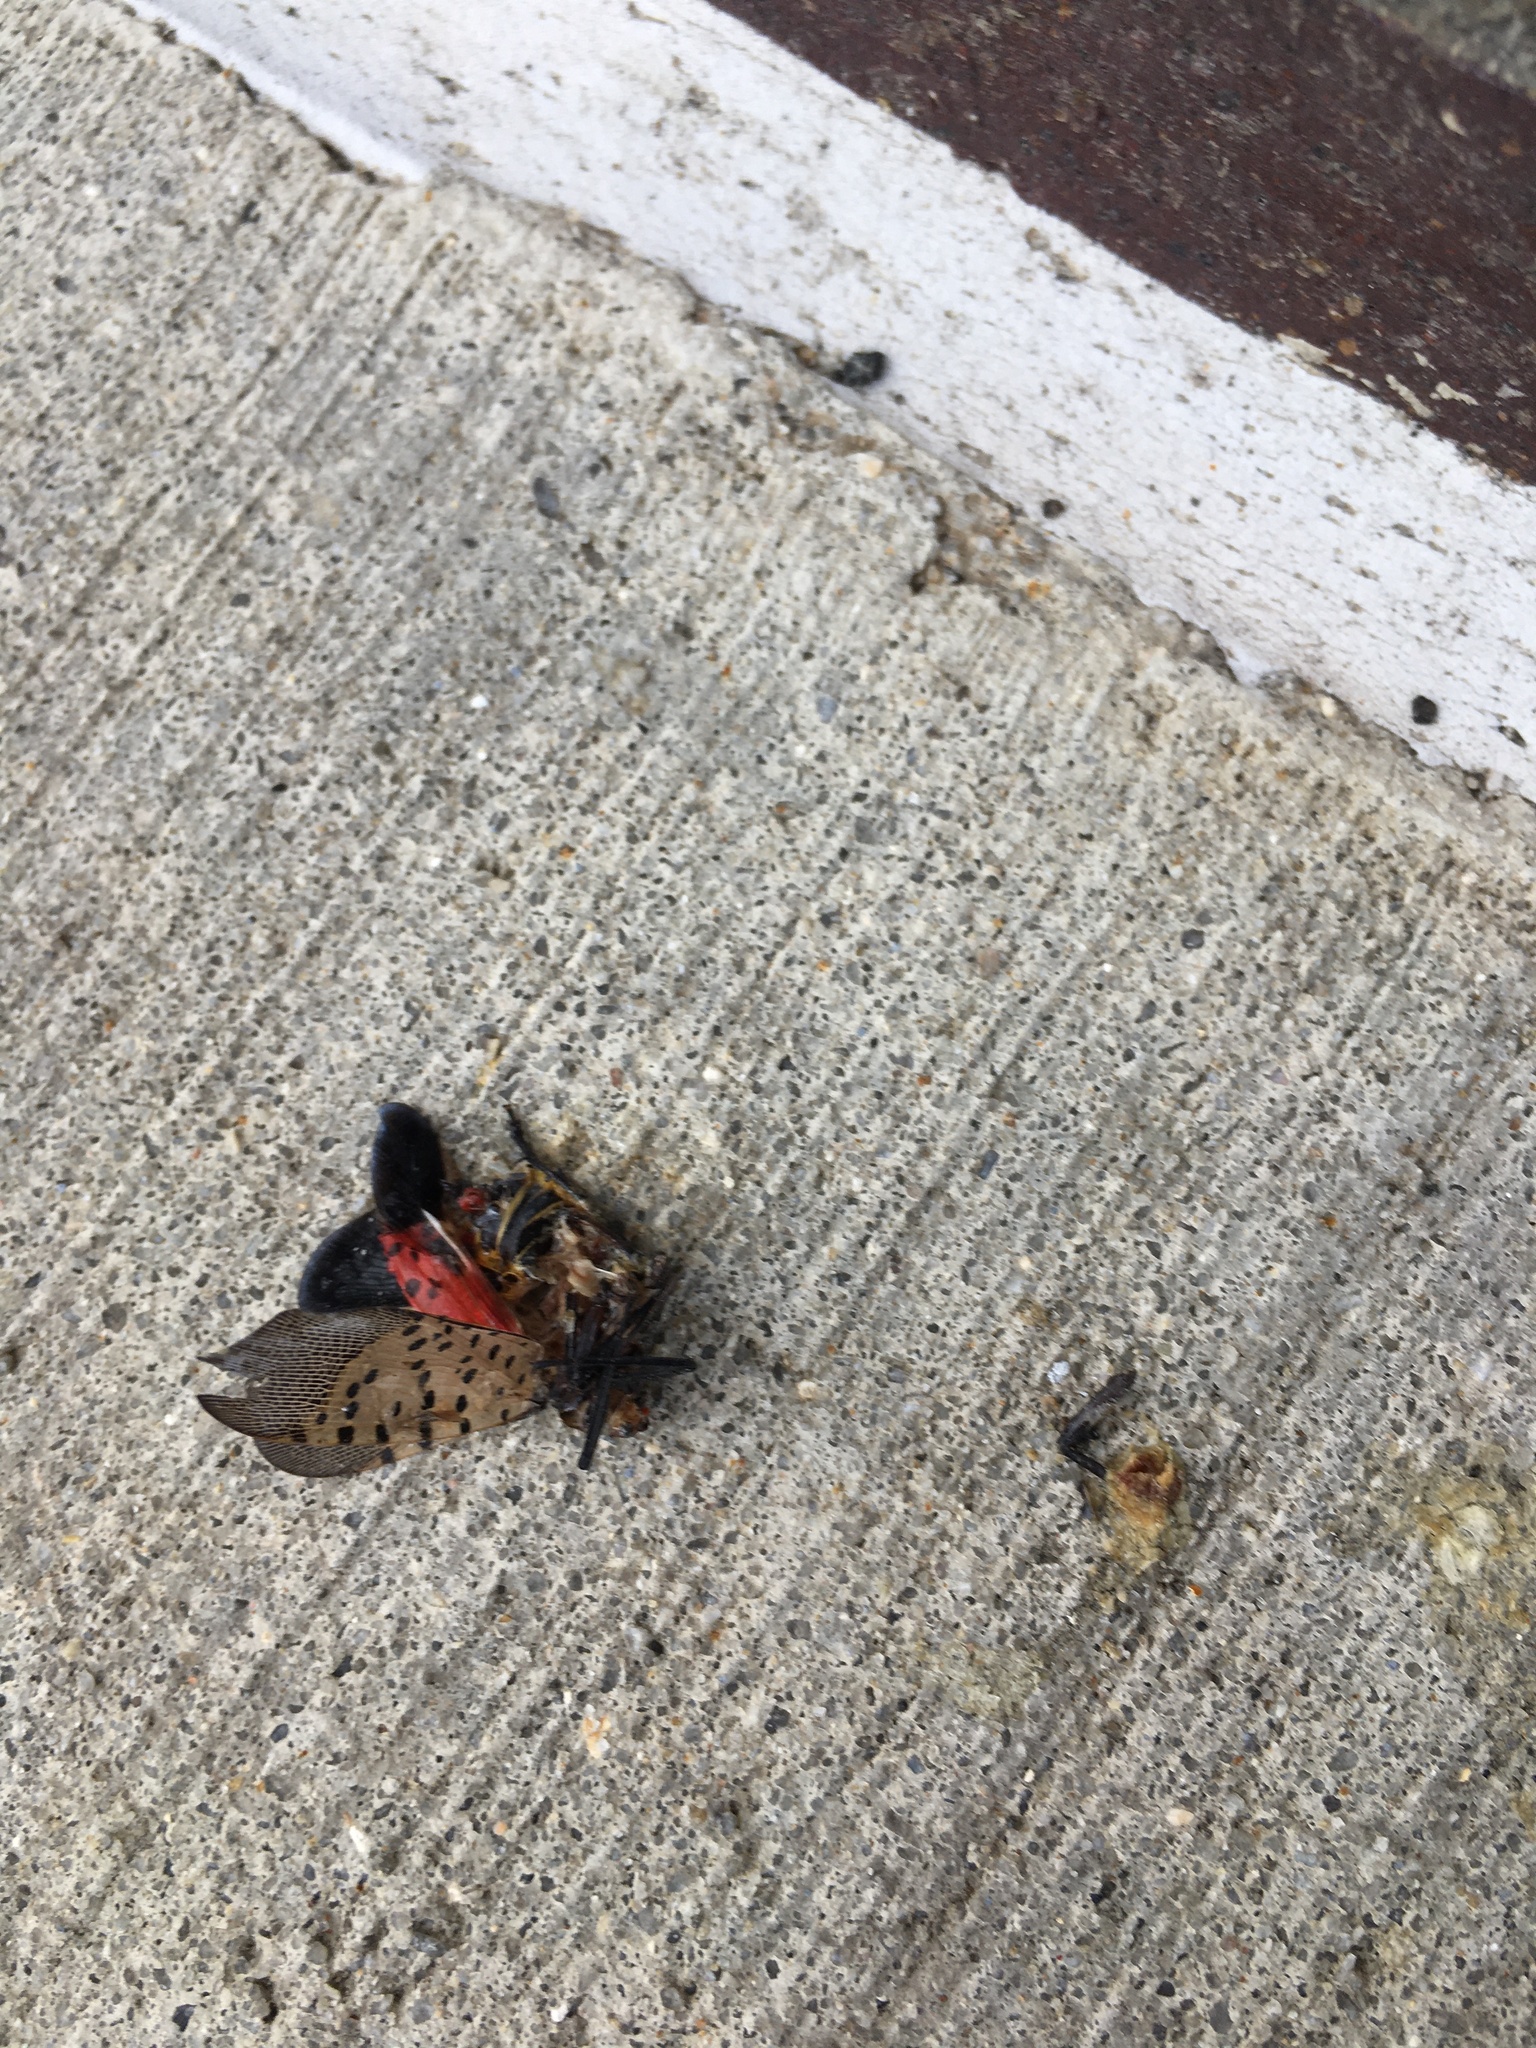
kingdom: Animalia
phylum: Arthropoda
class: Insecta
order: Hemiptera
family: Fulgoridae
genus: Lycorma
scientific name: Lycorma delicatula
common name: Spotted lanternfly
